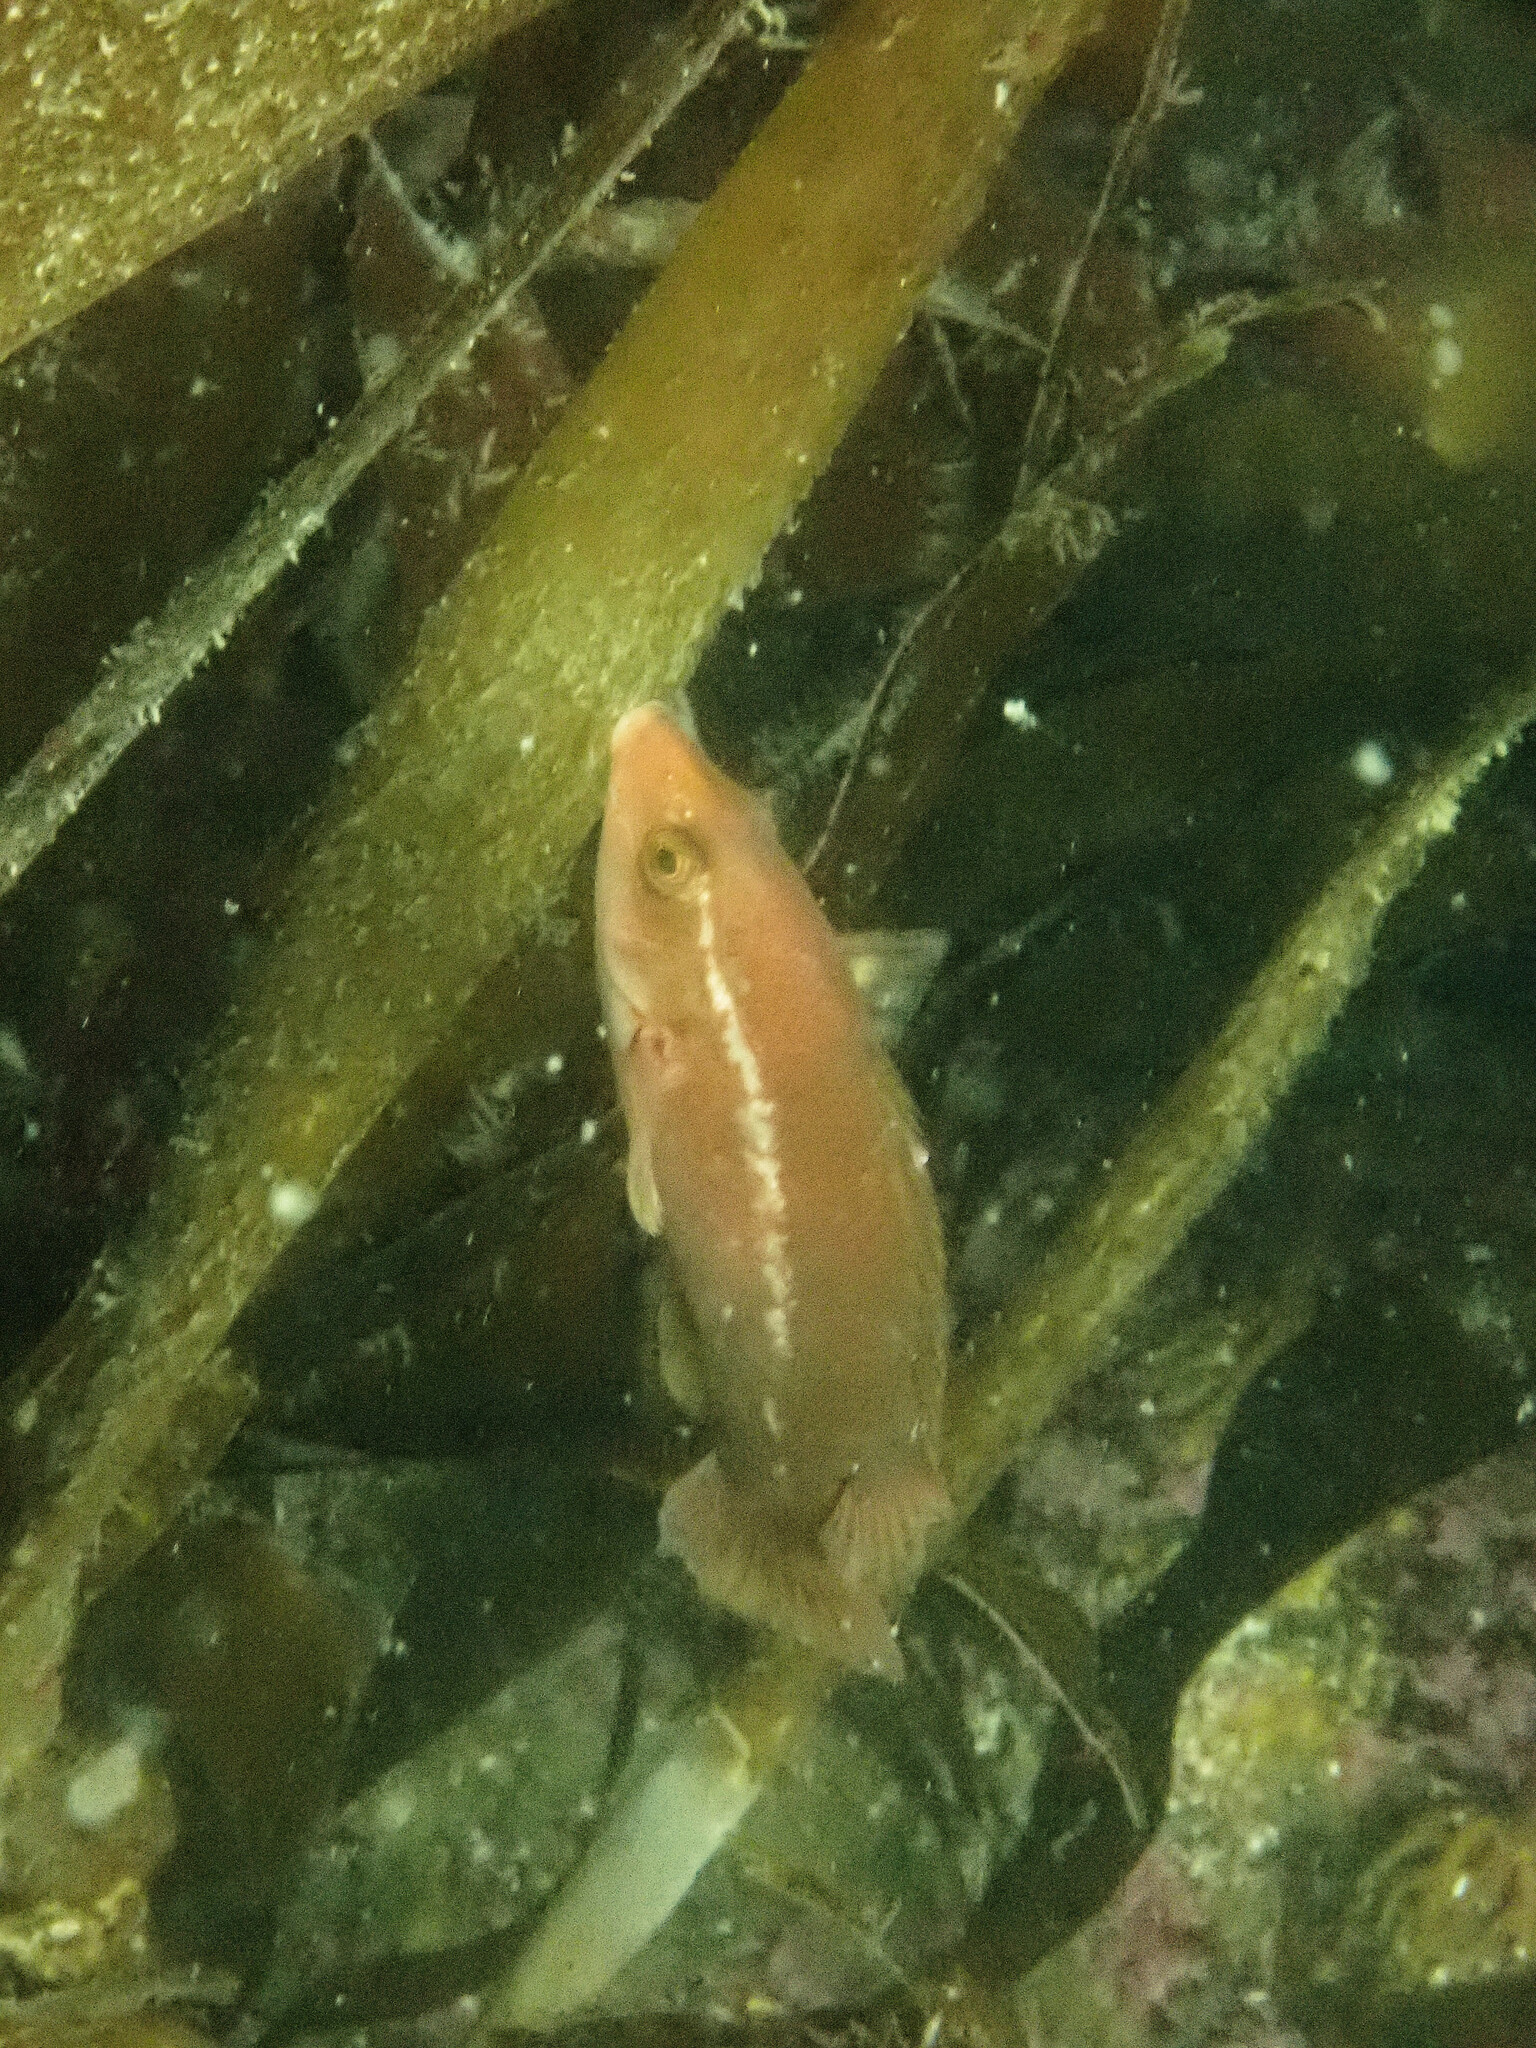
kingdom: Animalia
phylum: Chordata
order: Perciformes
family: Labridae
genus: Labrus
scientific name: Labrus bergylta
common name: Ballan wrasse
